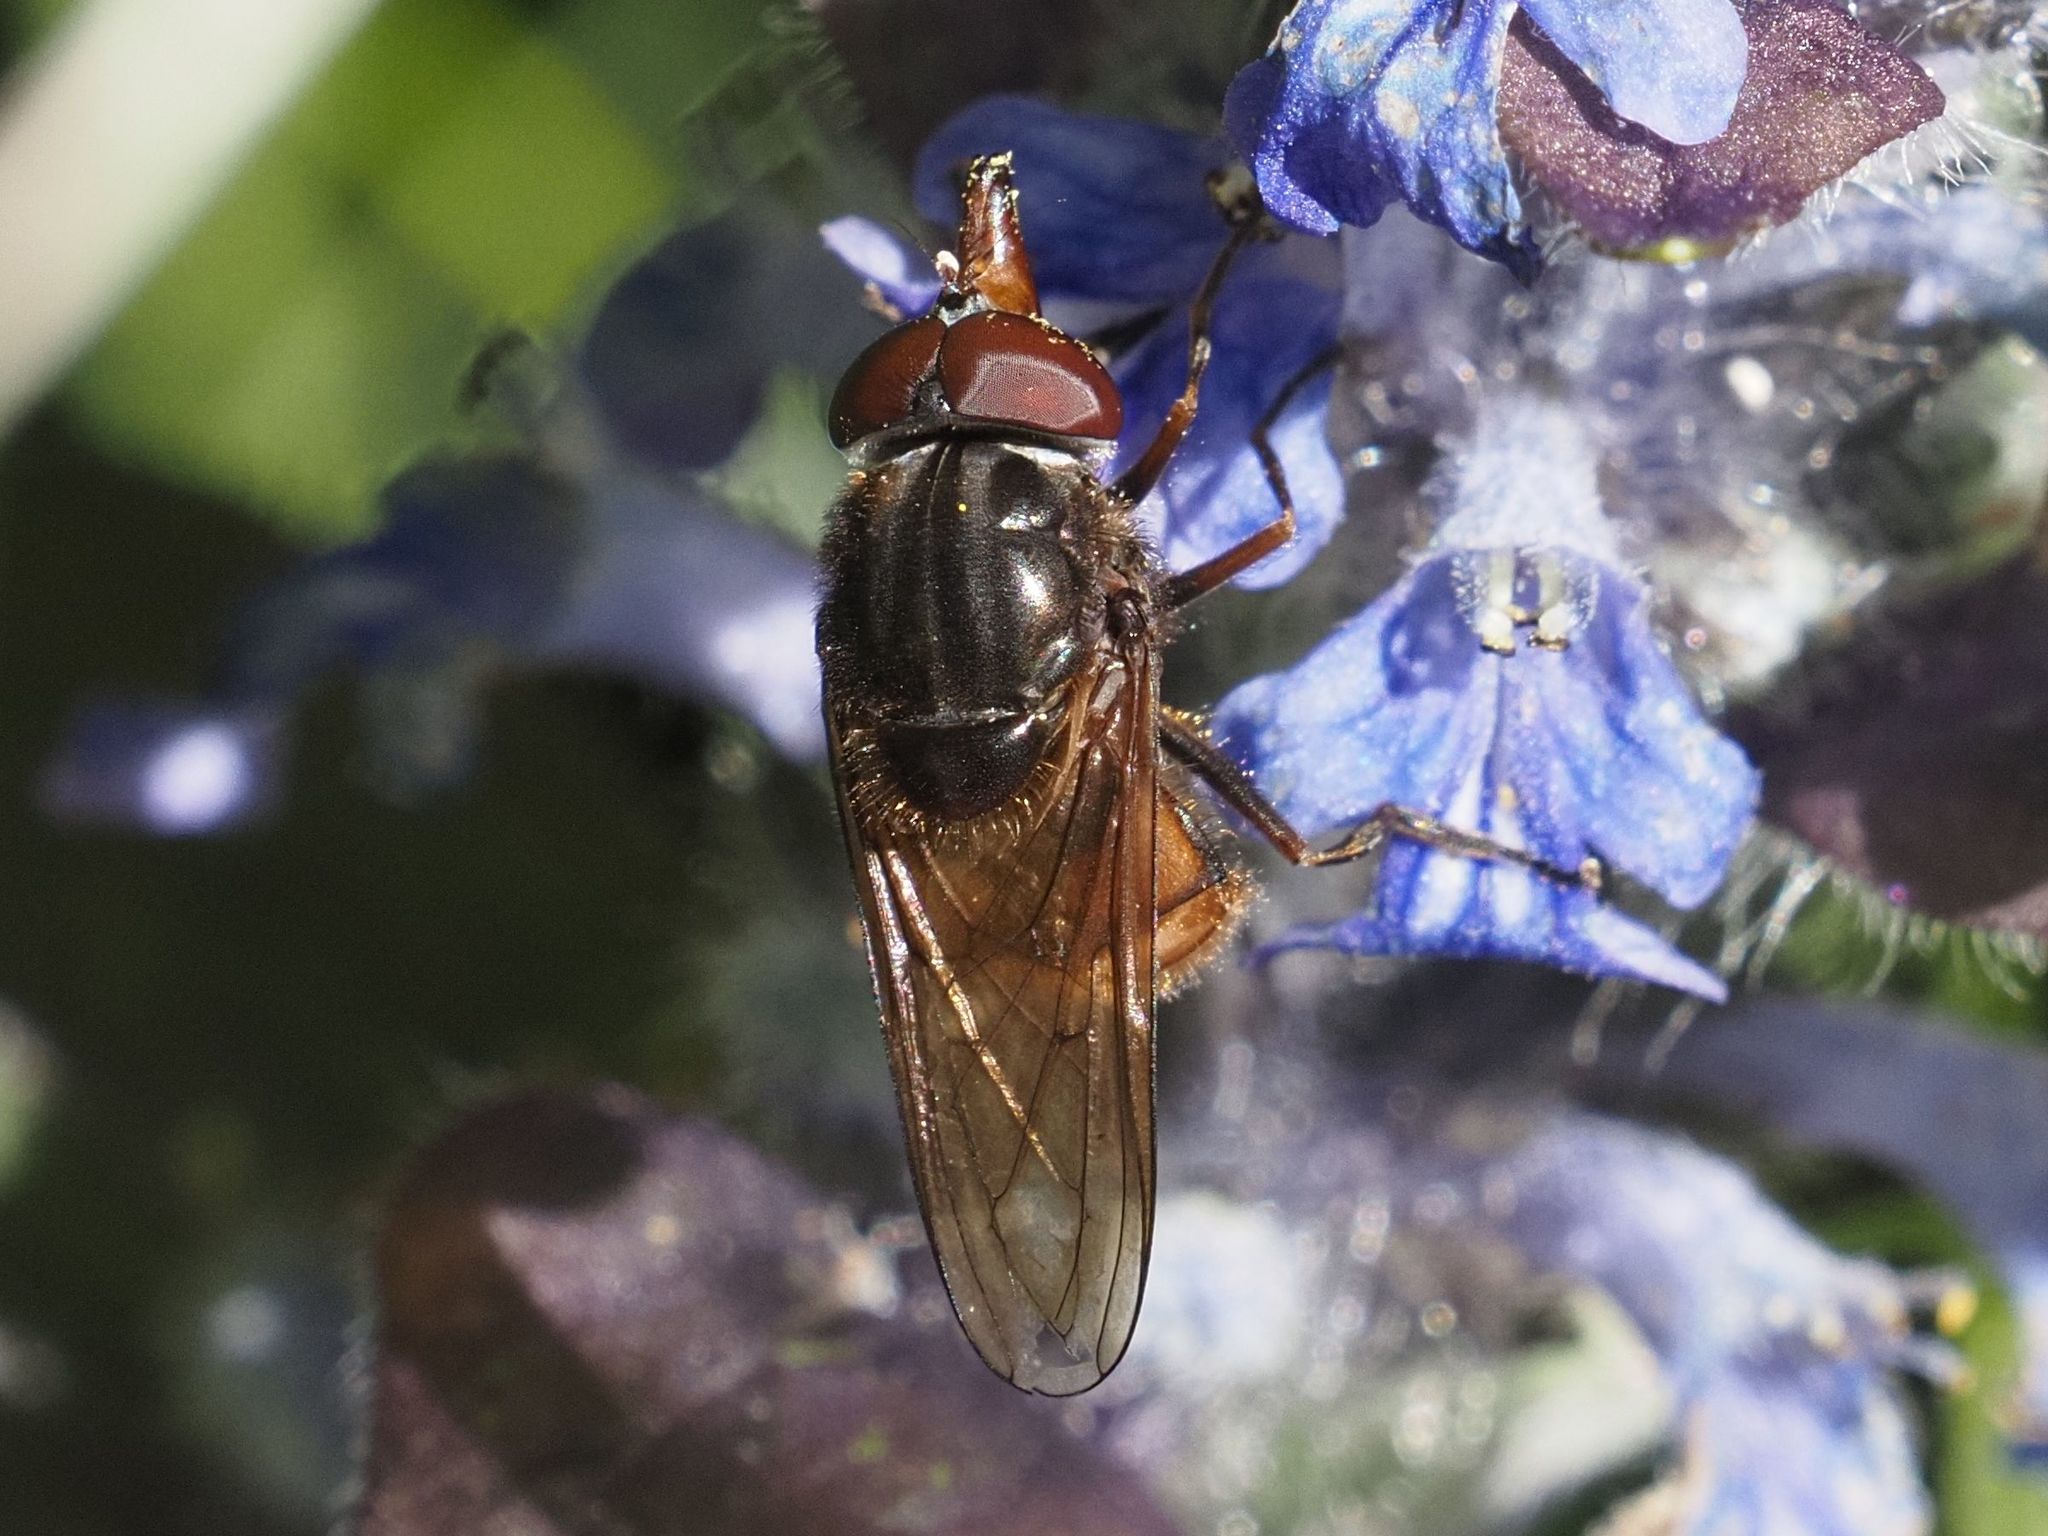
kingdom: Animalia
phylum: Arthropoda
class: Insecta
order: Diptera
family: Syrphidae
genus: Rhingia
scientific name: Rhingia campestris
